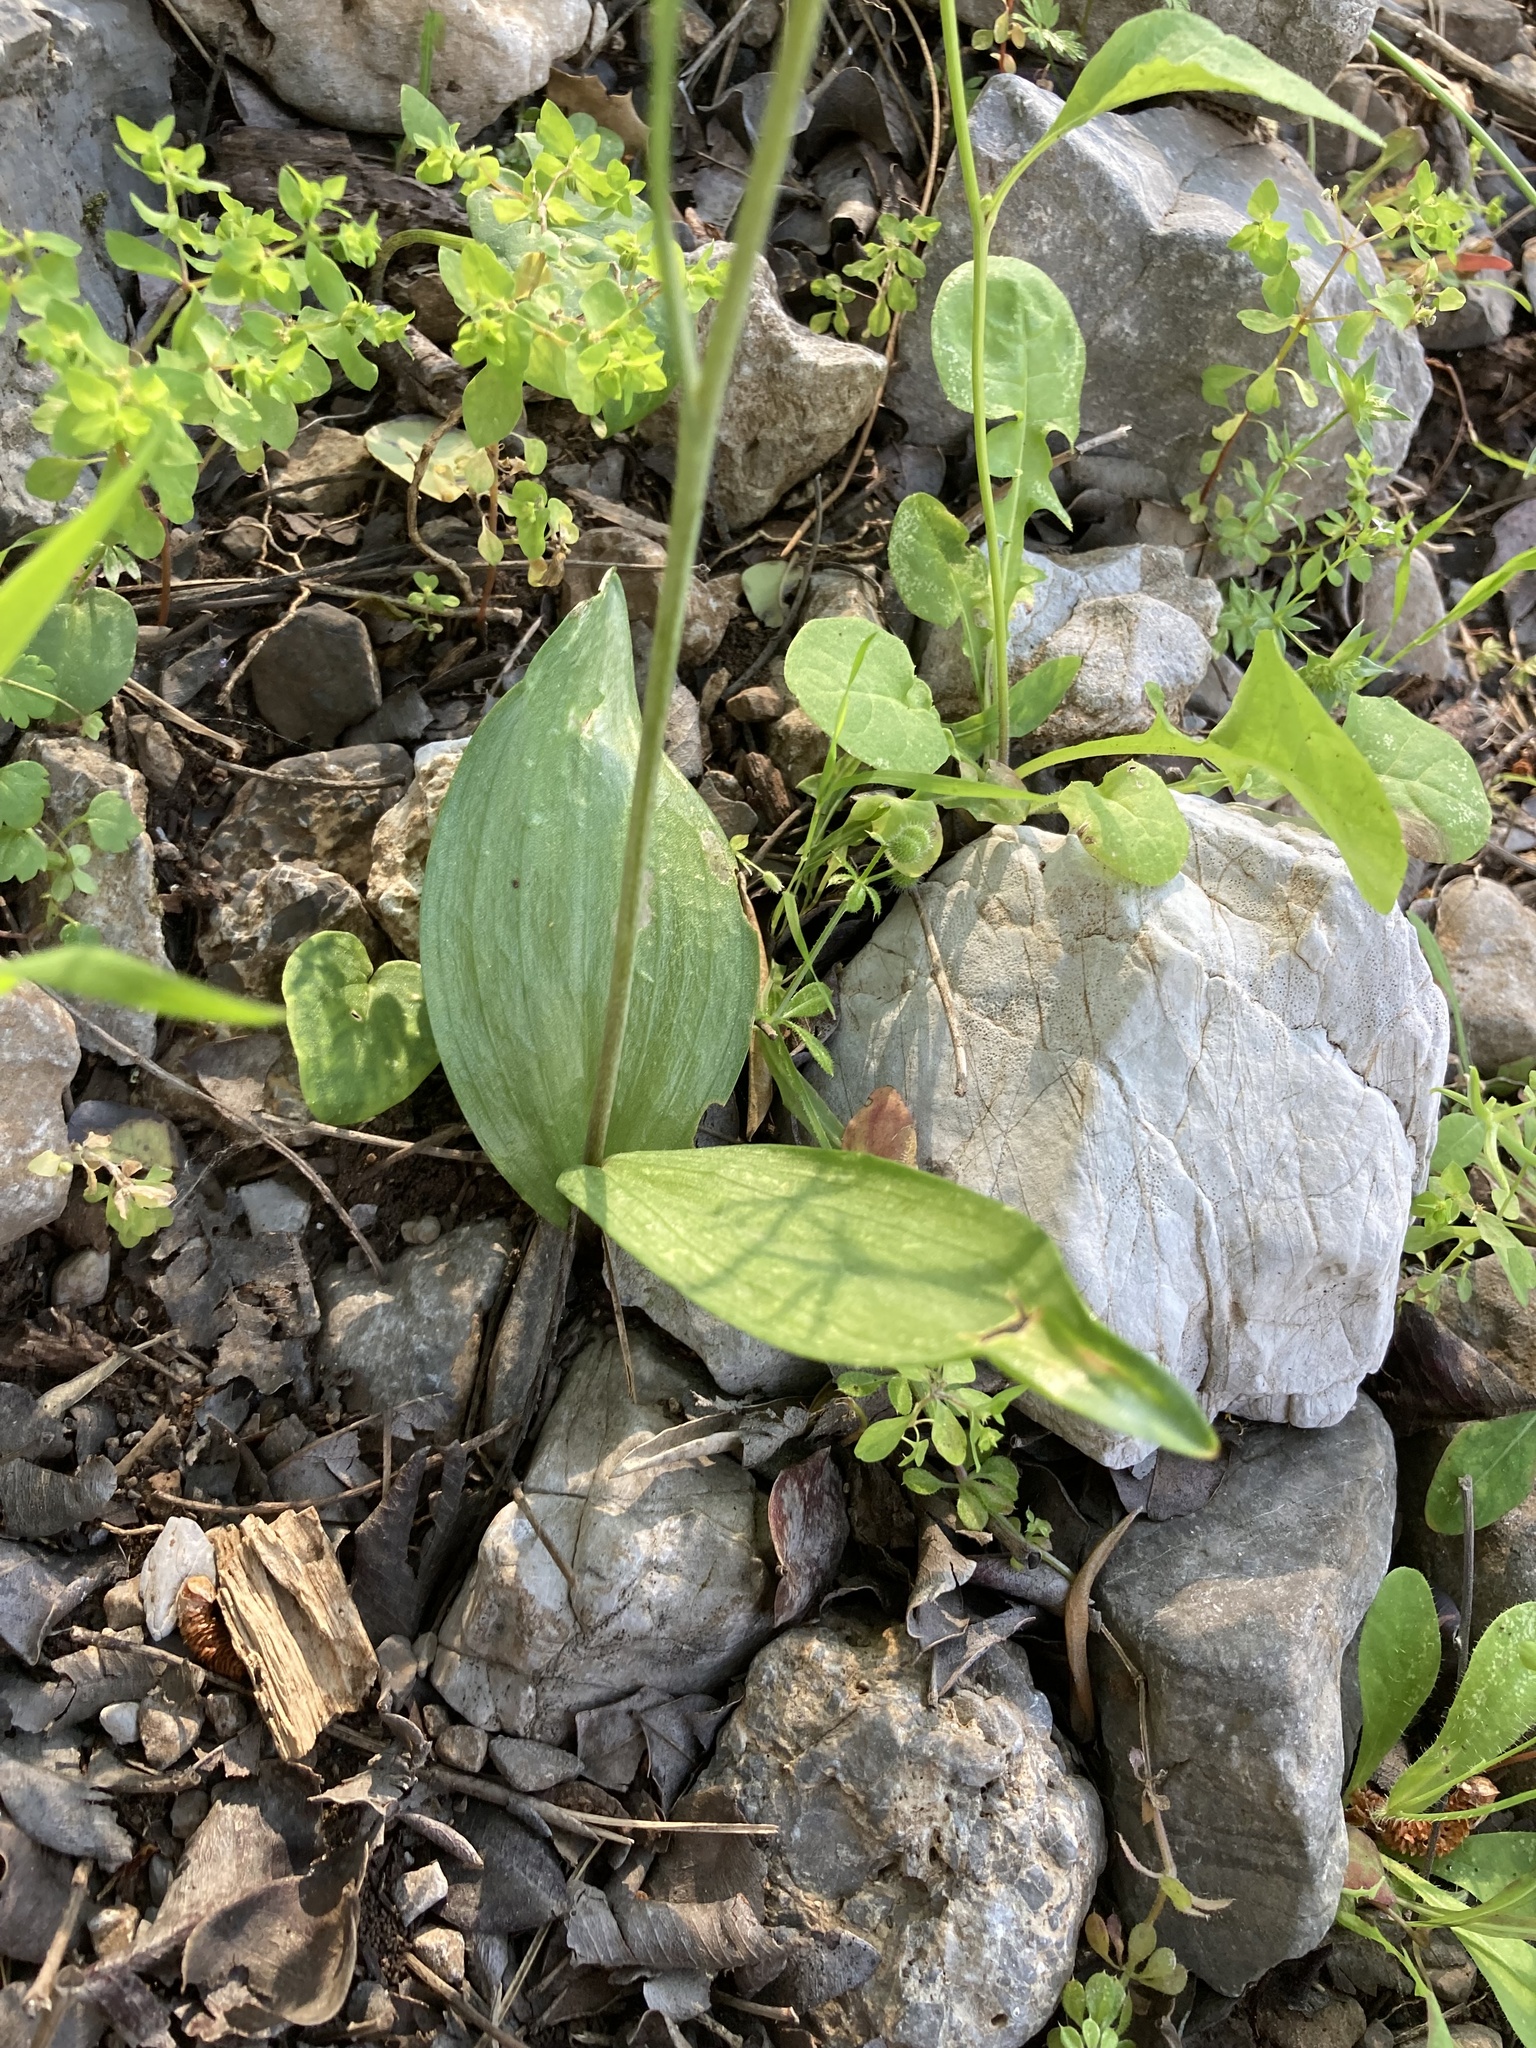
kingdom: Plantae
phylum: Tracheophyta
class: Liliopsida
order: Liliales
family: Liliaceae
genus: Fritillaria
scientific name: Fritillaria enginiana
